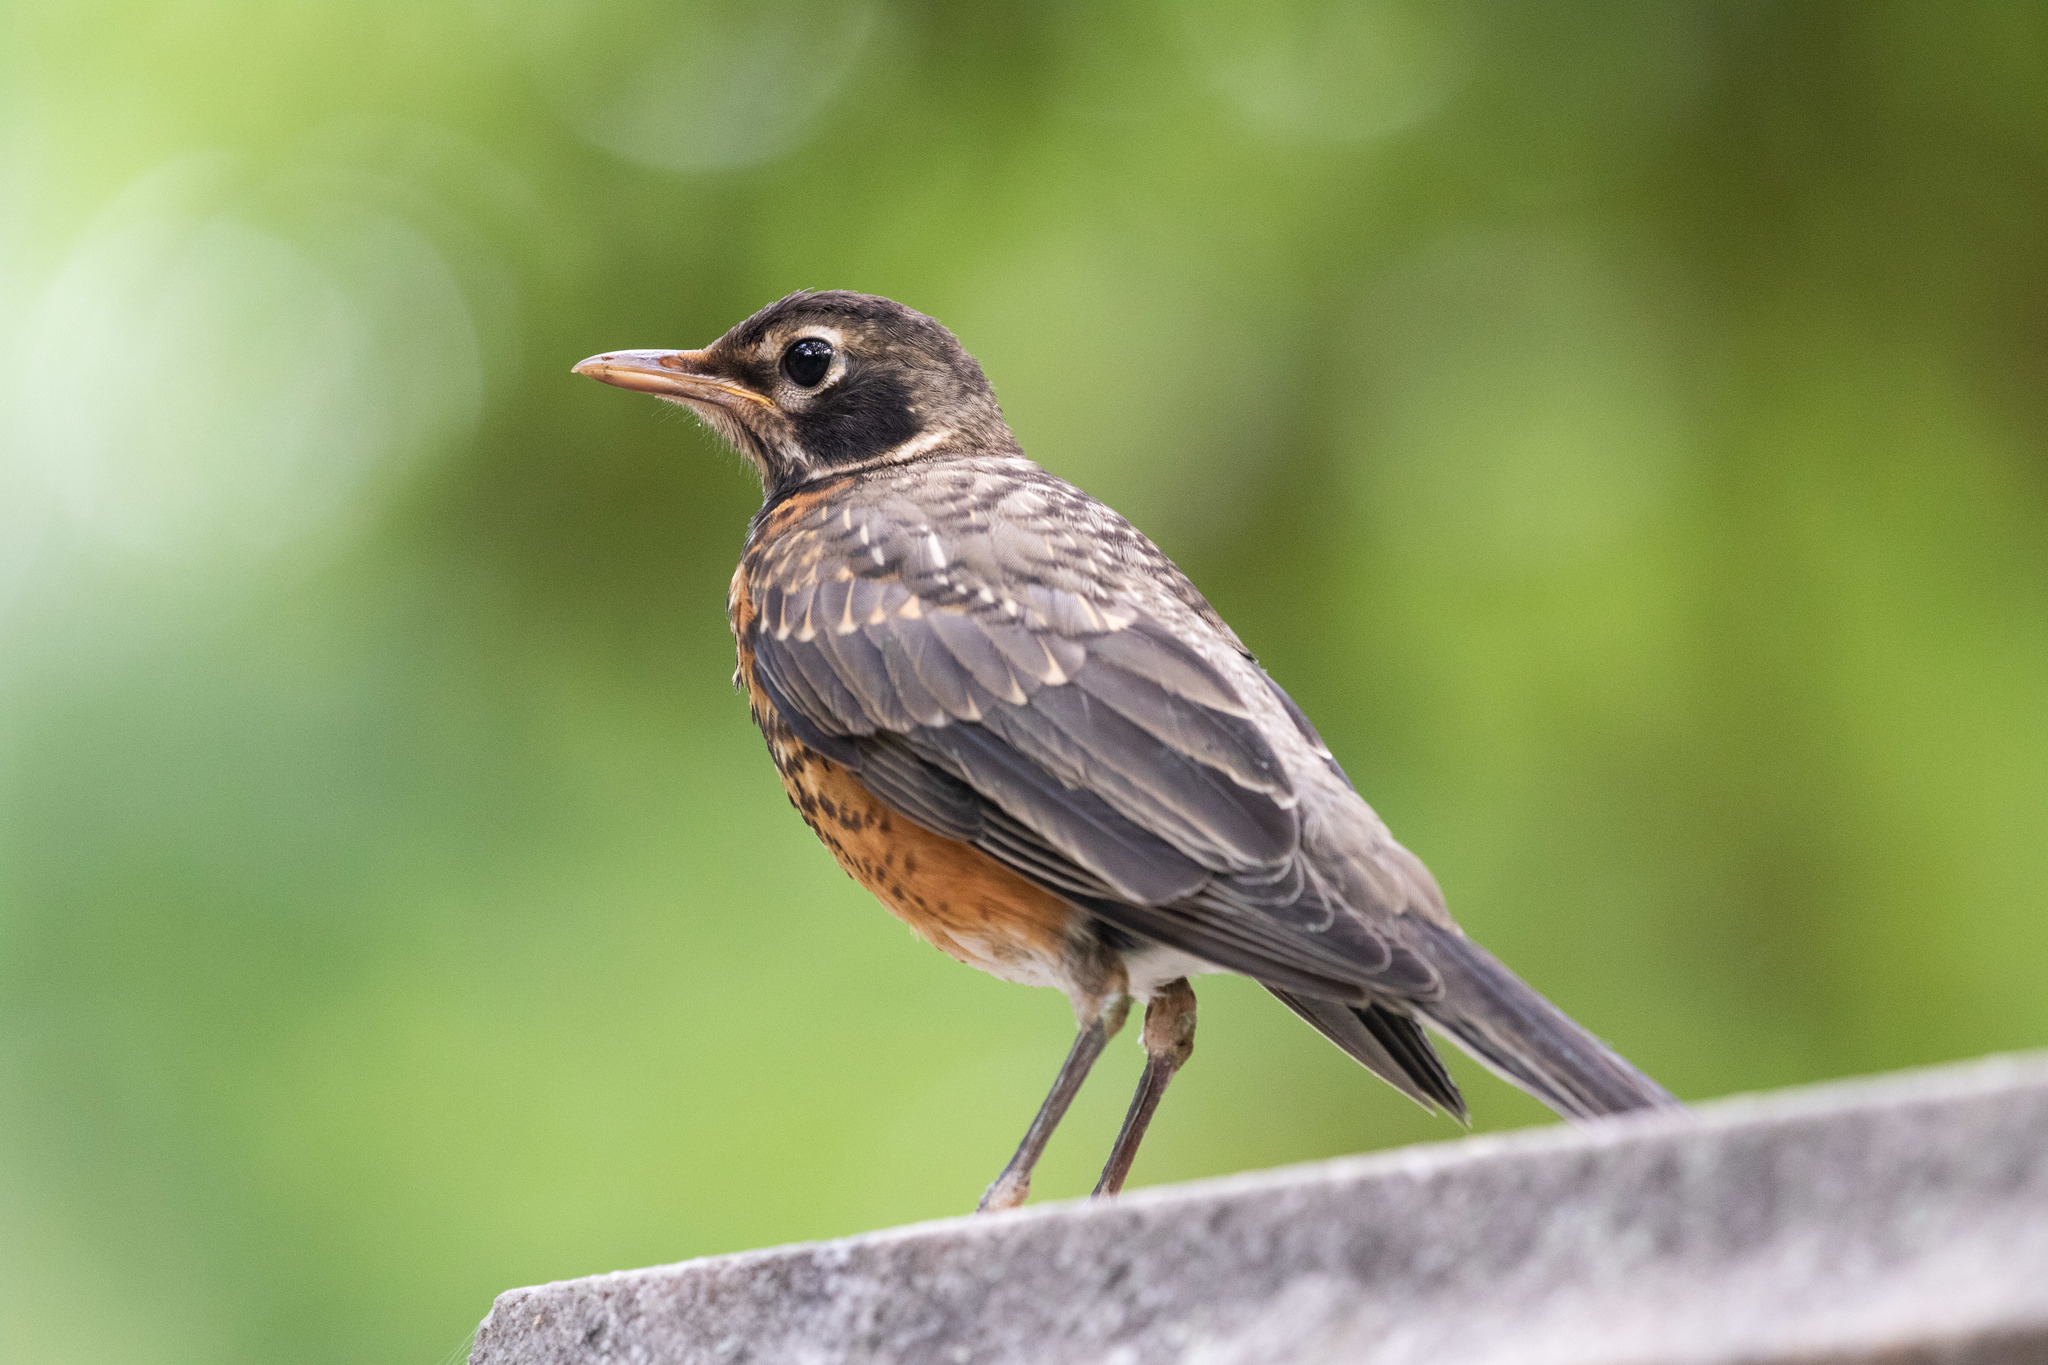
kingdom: Animalia
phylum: Chordata
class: Aves
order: Passeriformes
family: Turdidae
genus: Turdus
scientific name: Turdus migratorius
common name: American robin
